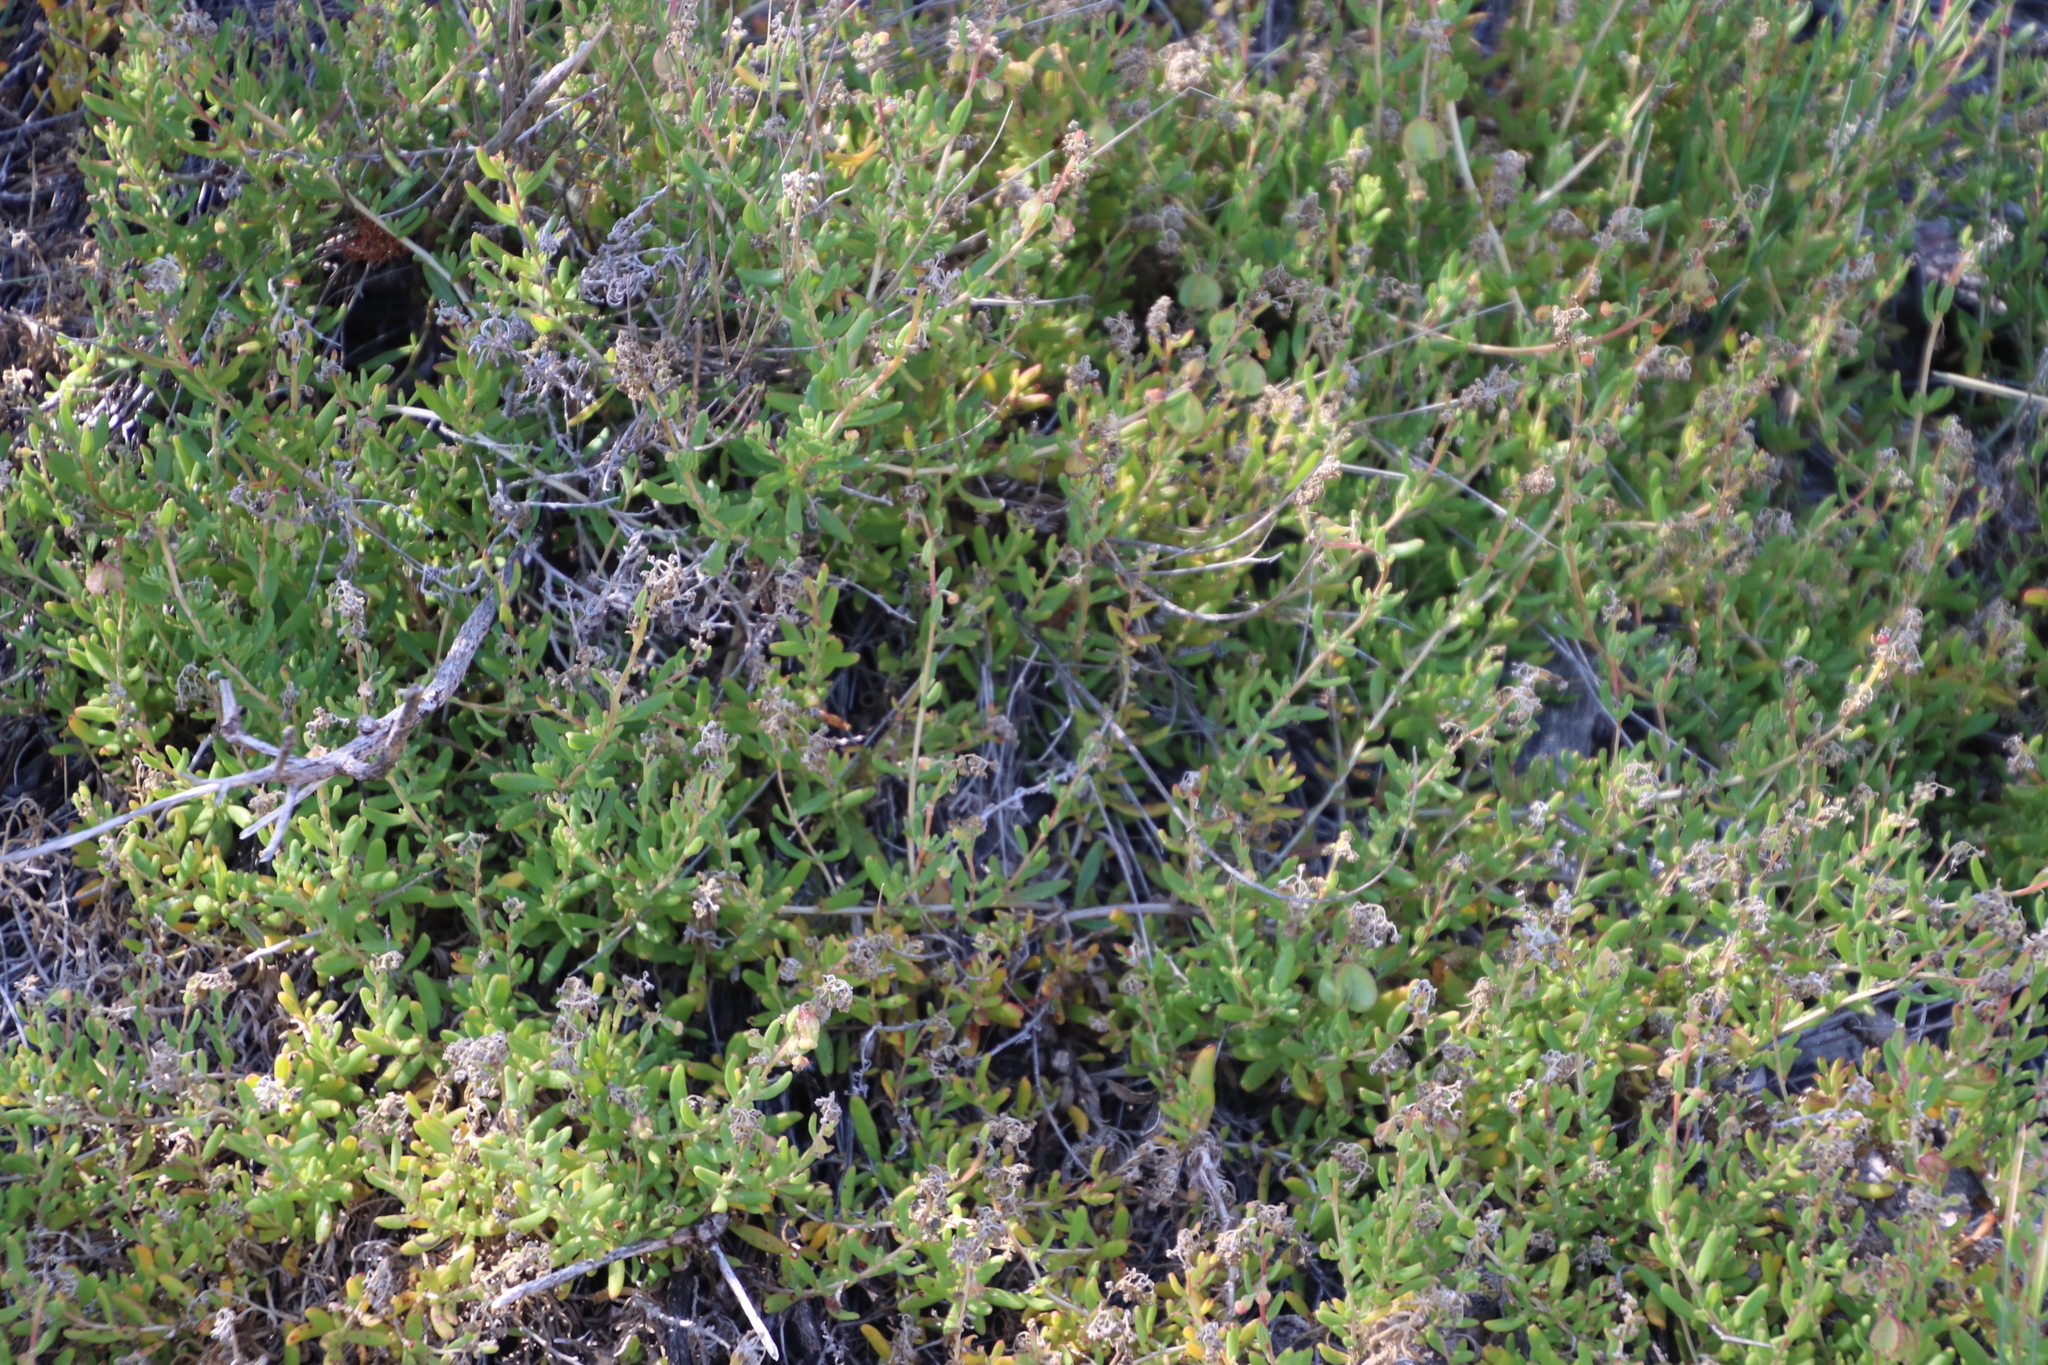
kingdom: Plantae
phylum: Tracheophyta
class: Magnoliopsida
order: Caryophyllales
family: Aizoaceae
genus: Tetragonia
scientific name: Tetragonia fruticosa
